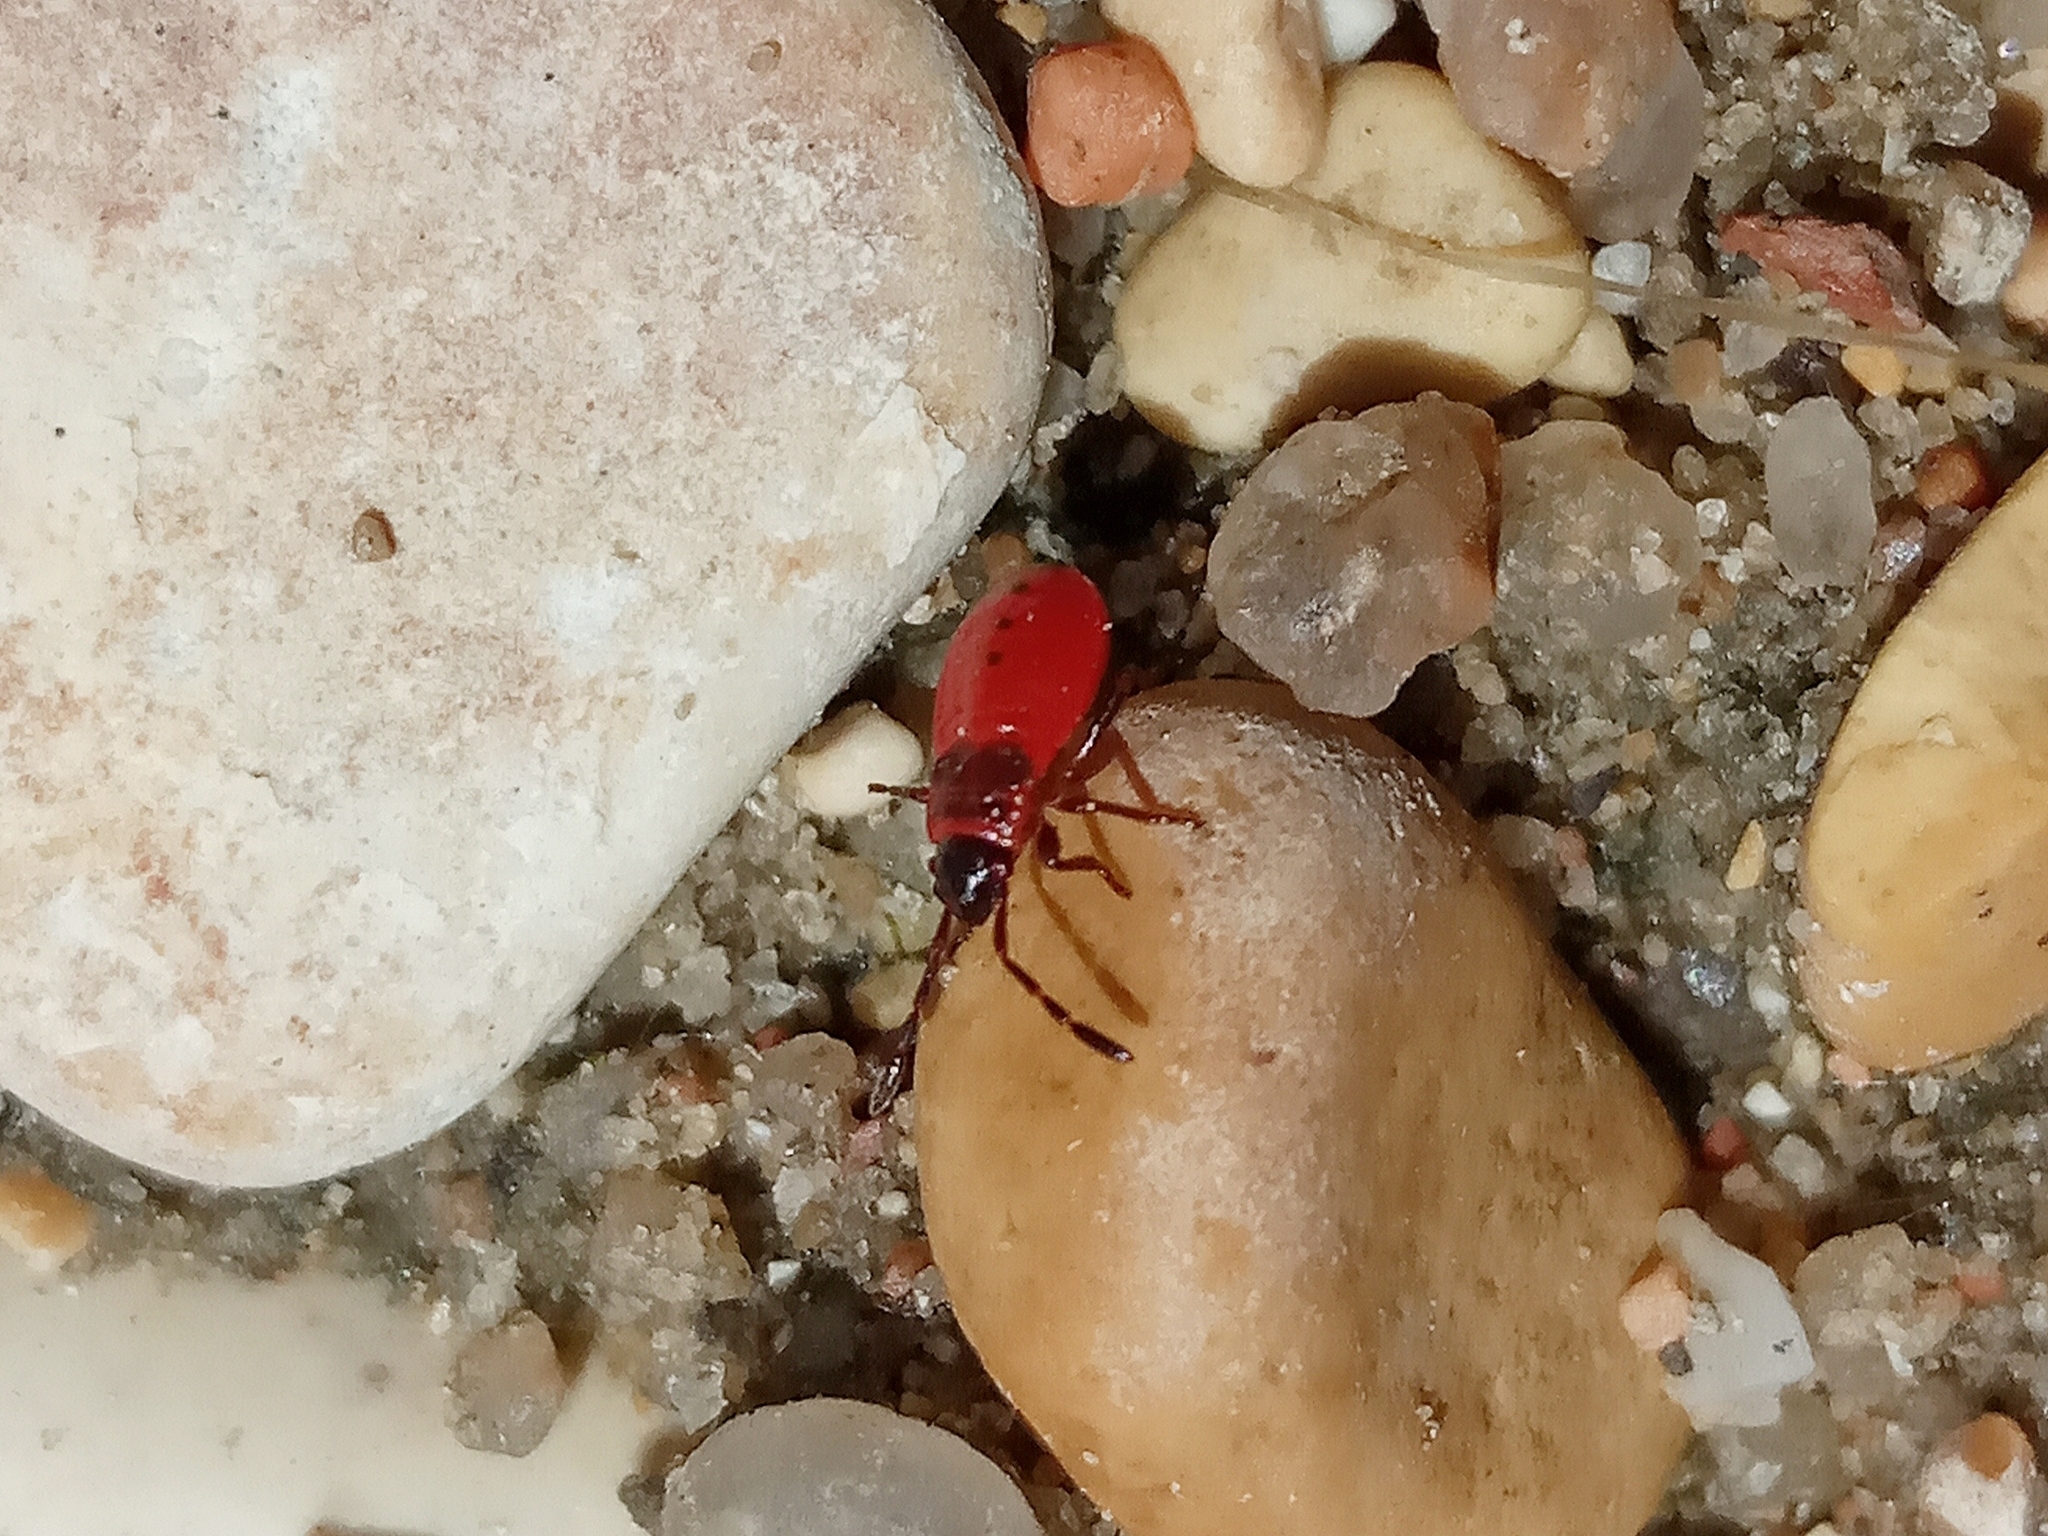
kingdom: Animalia
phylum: Arthropoda
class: Insecta
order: Hemiptera
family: Pyrrhocoridae
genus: Pyrrhocoris
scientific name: Pyrrhocoris apterus
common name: Firebug
